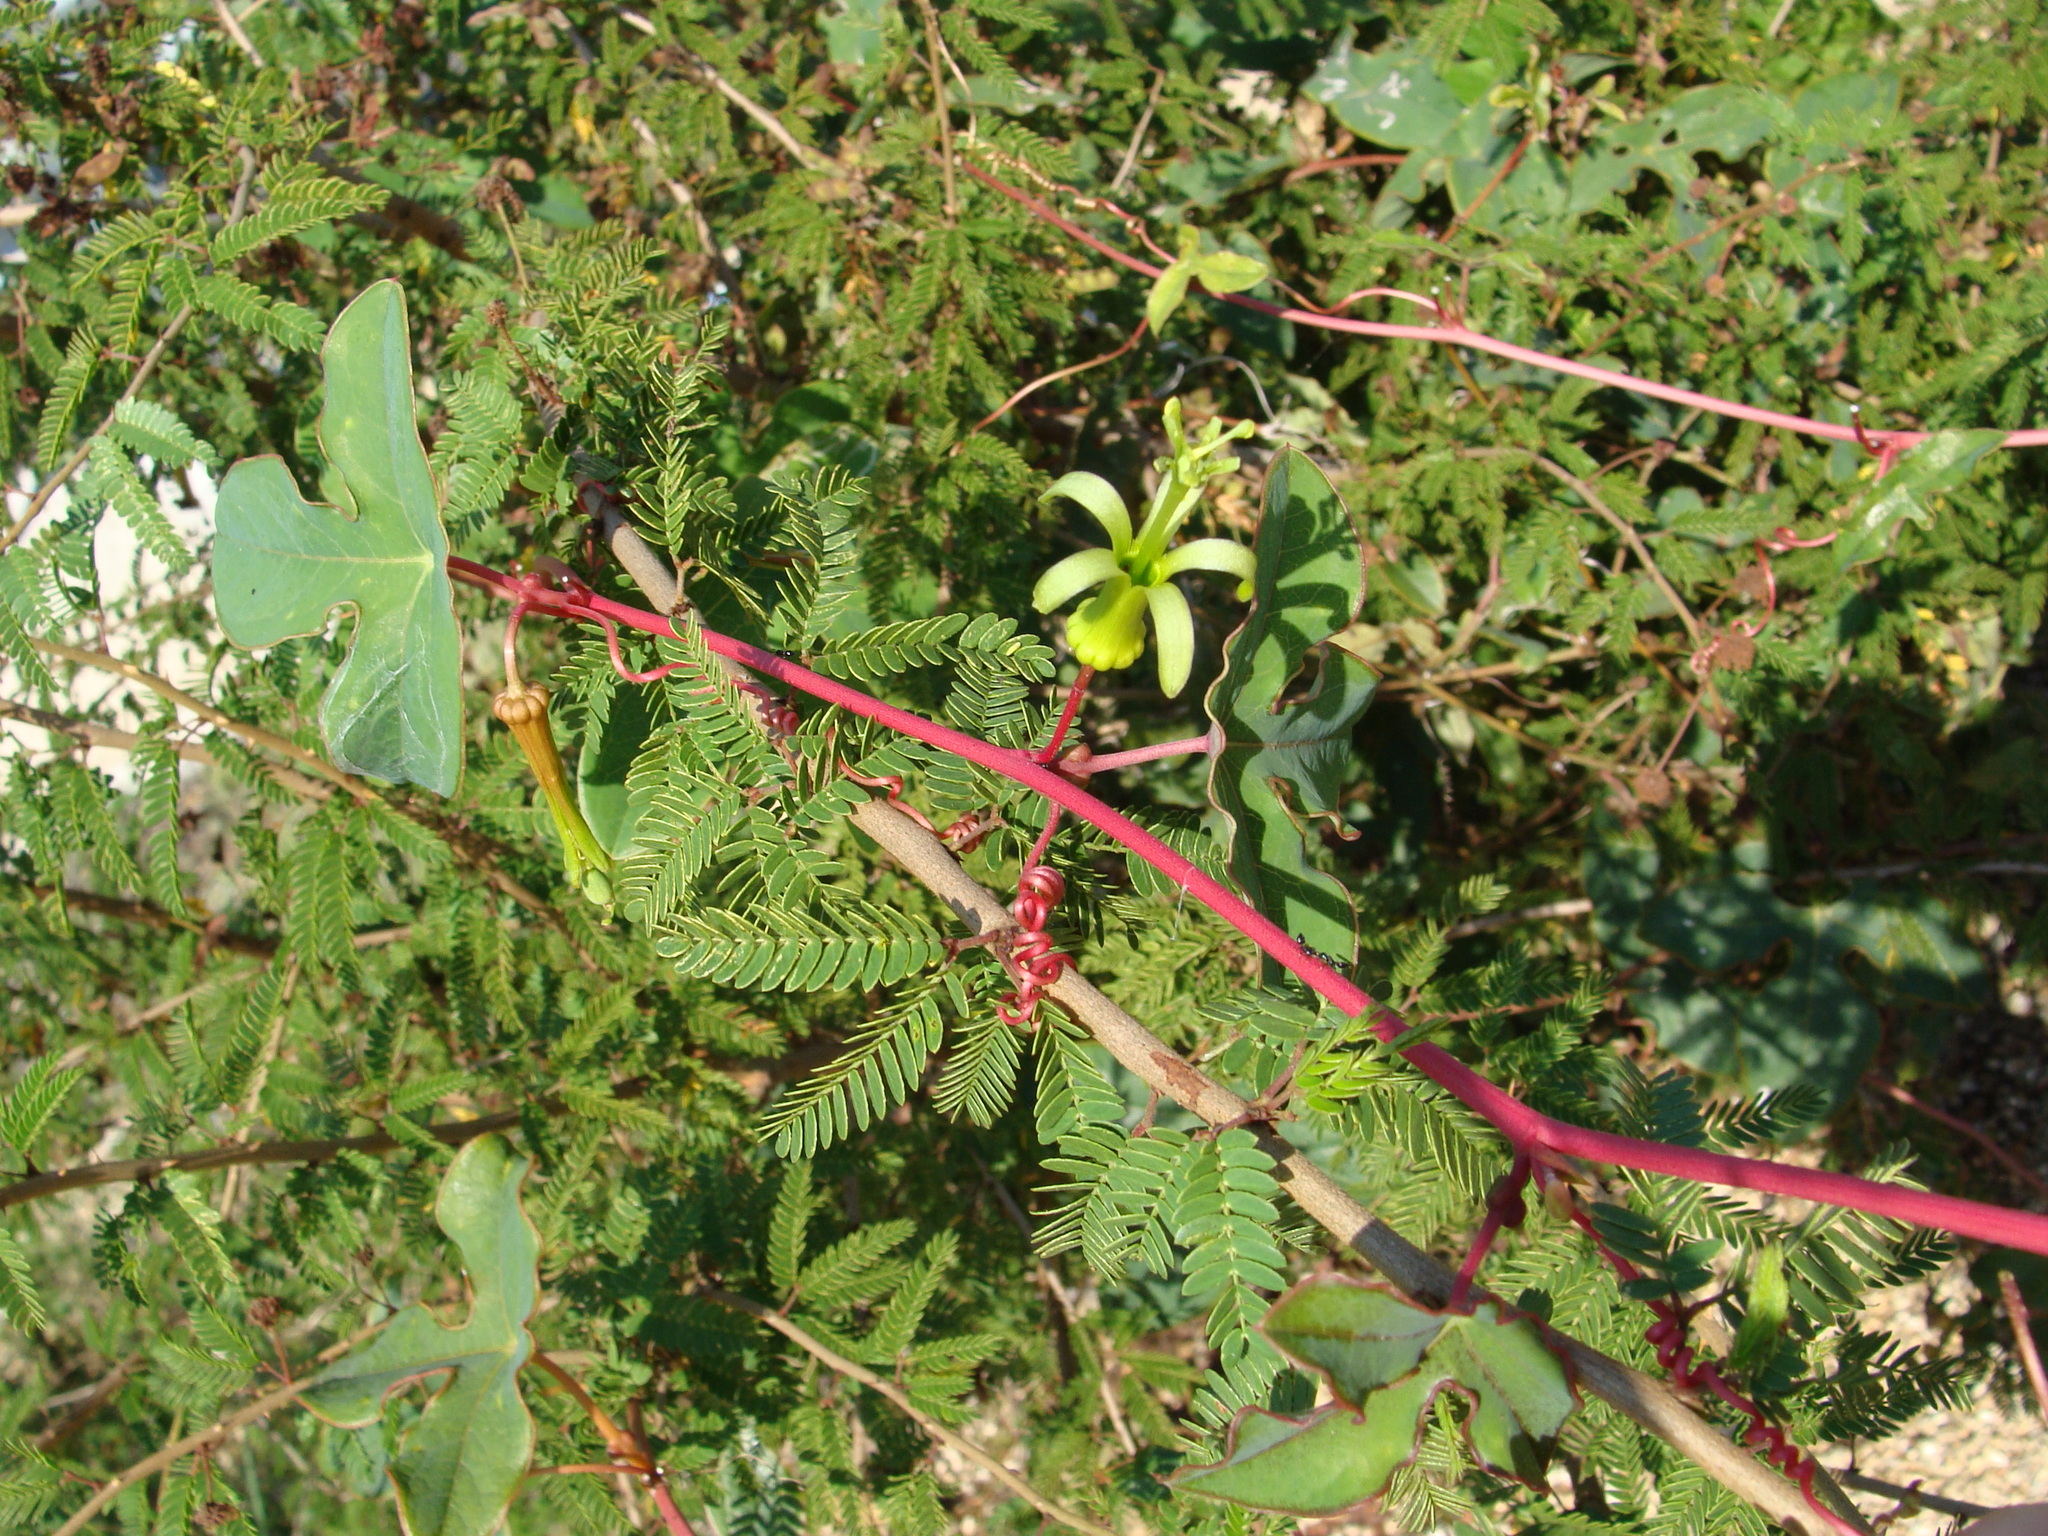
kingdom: Plantae
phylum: Tracheophyta
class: Magnoliopsida
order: Malpighiales
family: Passifloraceae
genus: Passiflora
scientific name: Passiflora viridiflora
